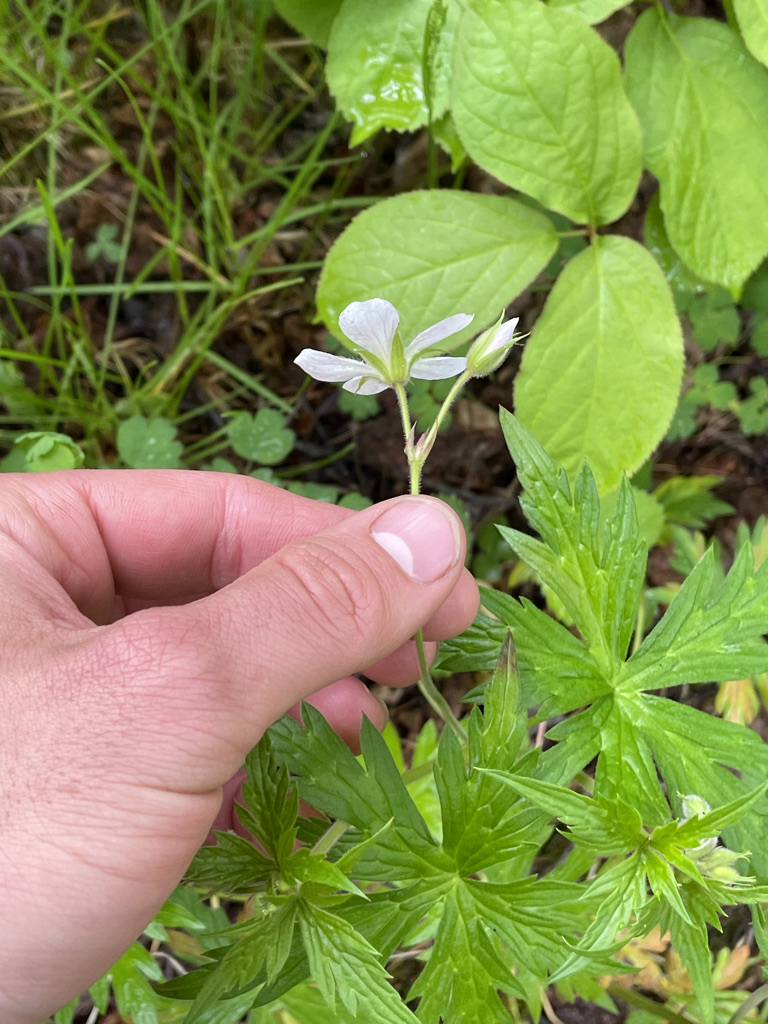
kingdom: Plantae
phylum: Tracheophyta
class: Magnoliopsida
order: Geraniales
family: Geraniaceae
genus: Geranium
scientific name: Geranium richardsonii
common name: Richardson's crane's-bill
